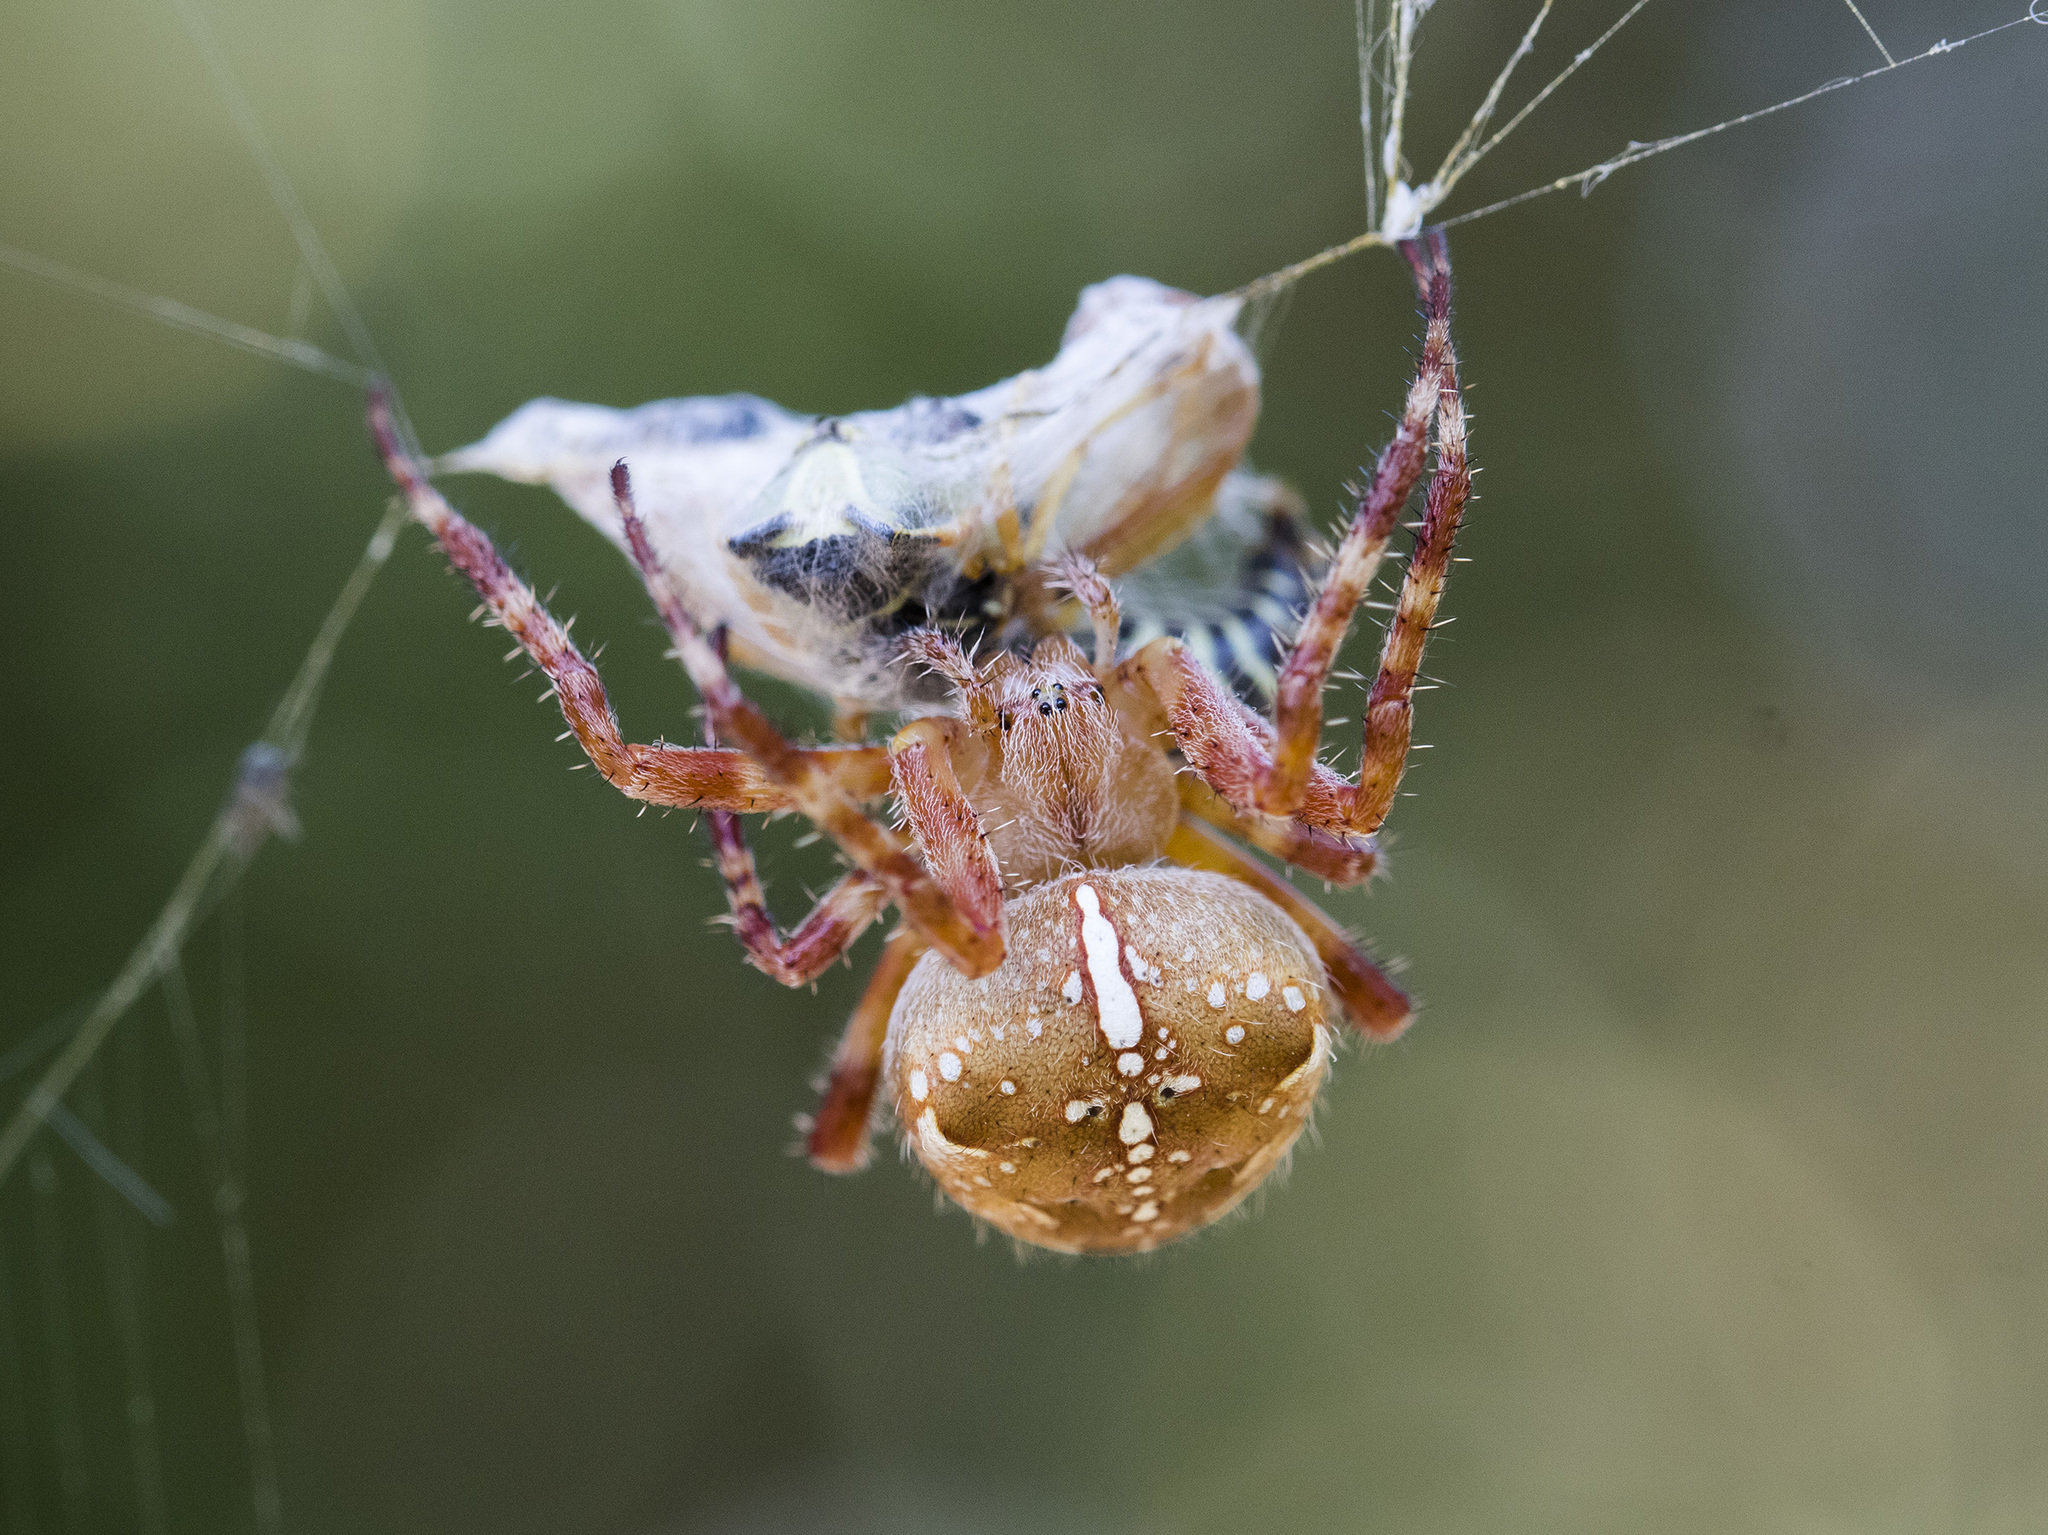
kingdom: Animalia
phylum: Arthropoda
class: Arachnida
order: Araneae
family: Araneidae
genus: Araneus
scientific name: Araneus diadematus
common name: Cross orbweaver
